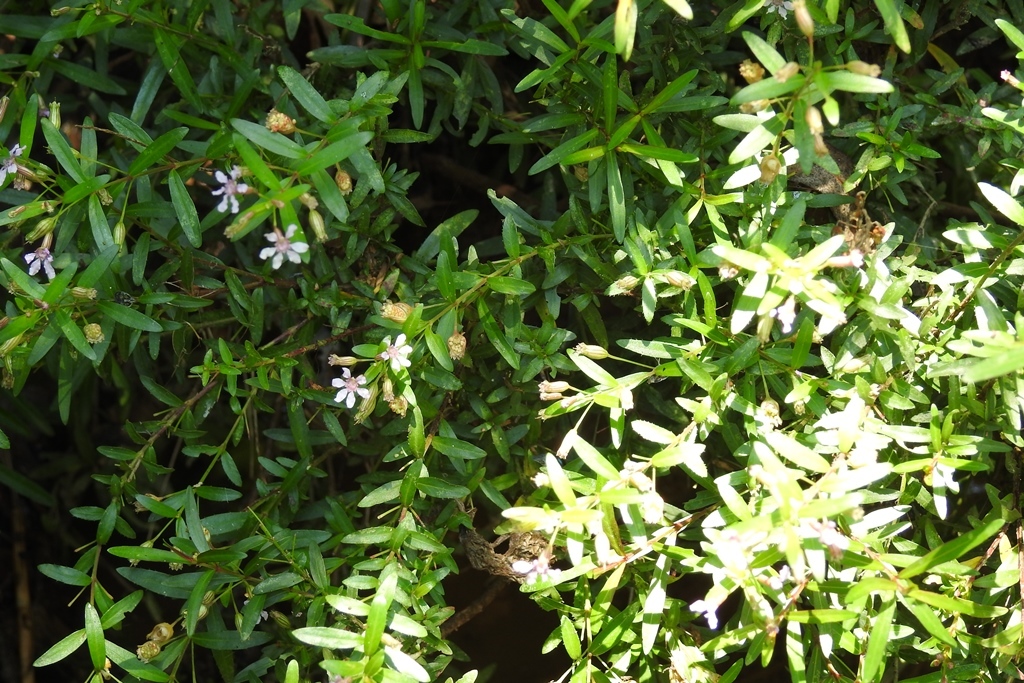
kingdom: Plantae
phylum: Tracheophyta
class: Magnoliopsida
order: Myrtales
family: Lythraceae
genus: Cuphea
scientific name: Cuphea hyssopifolia
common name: False heather
